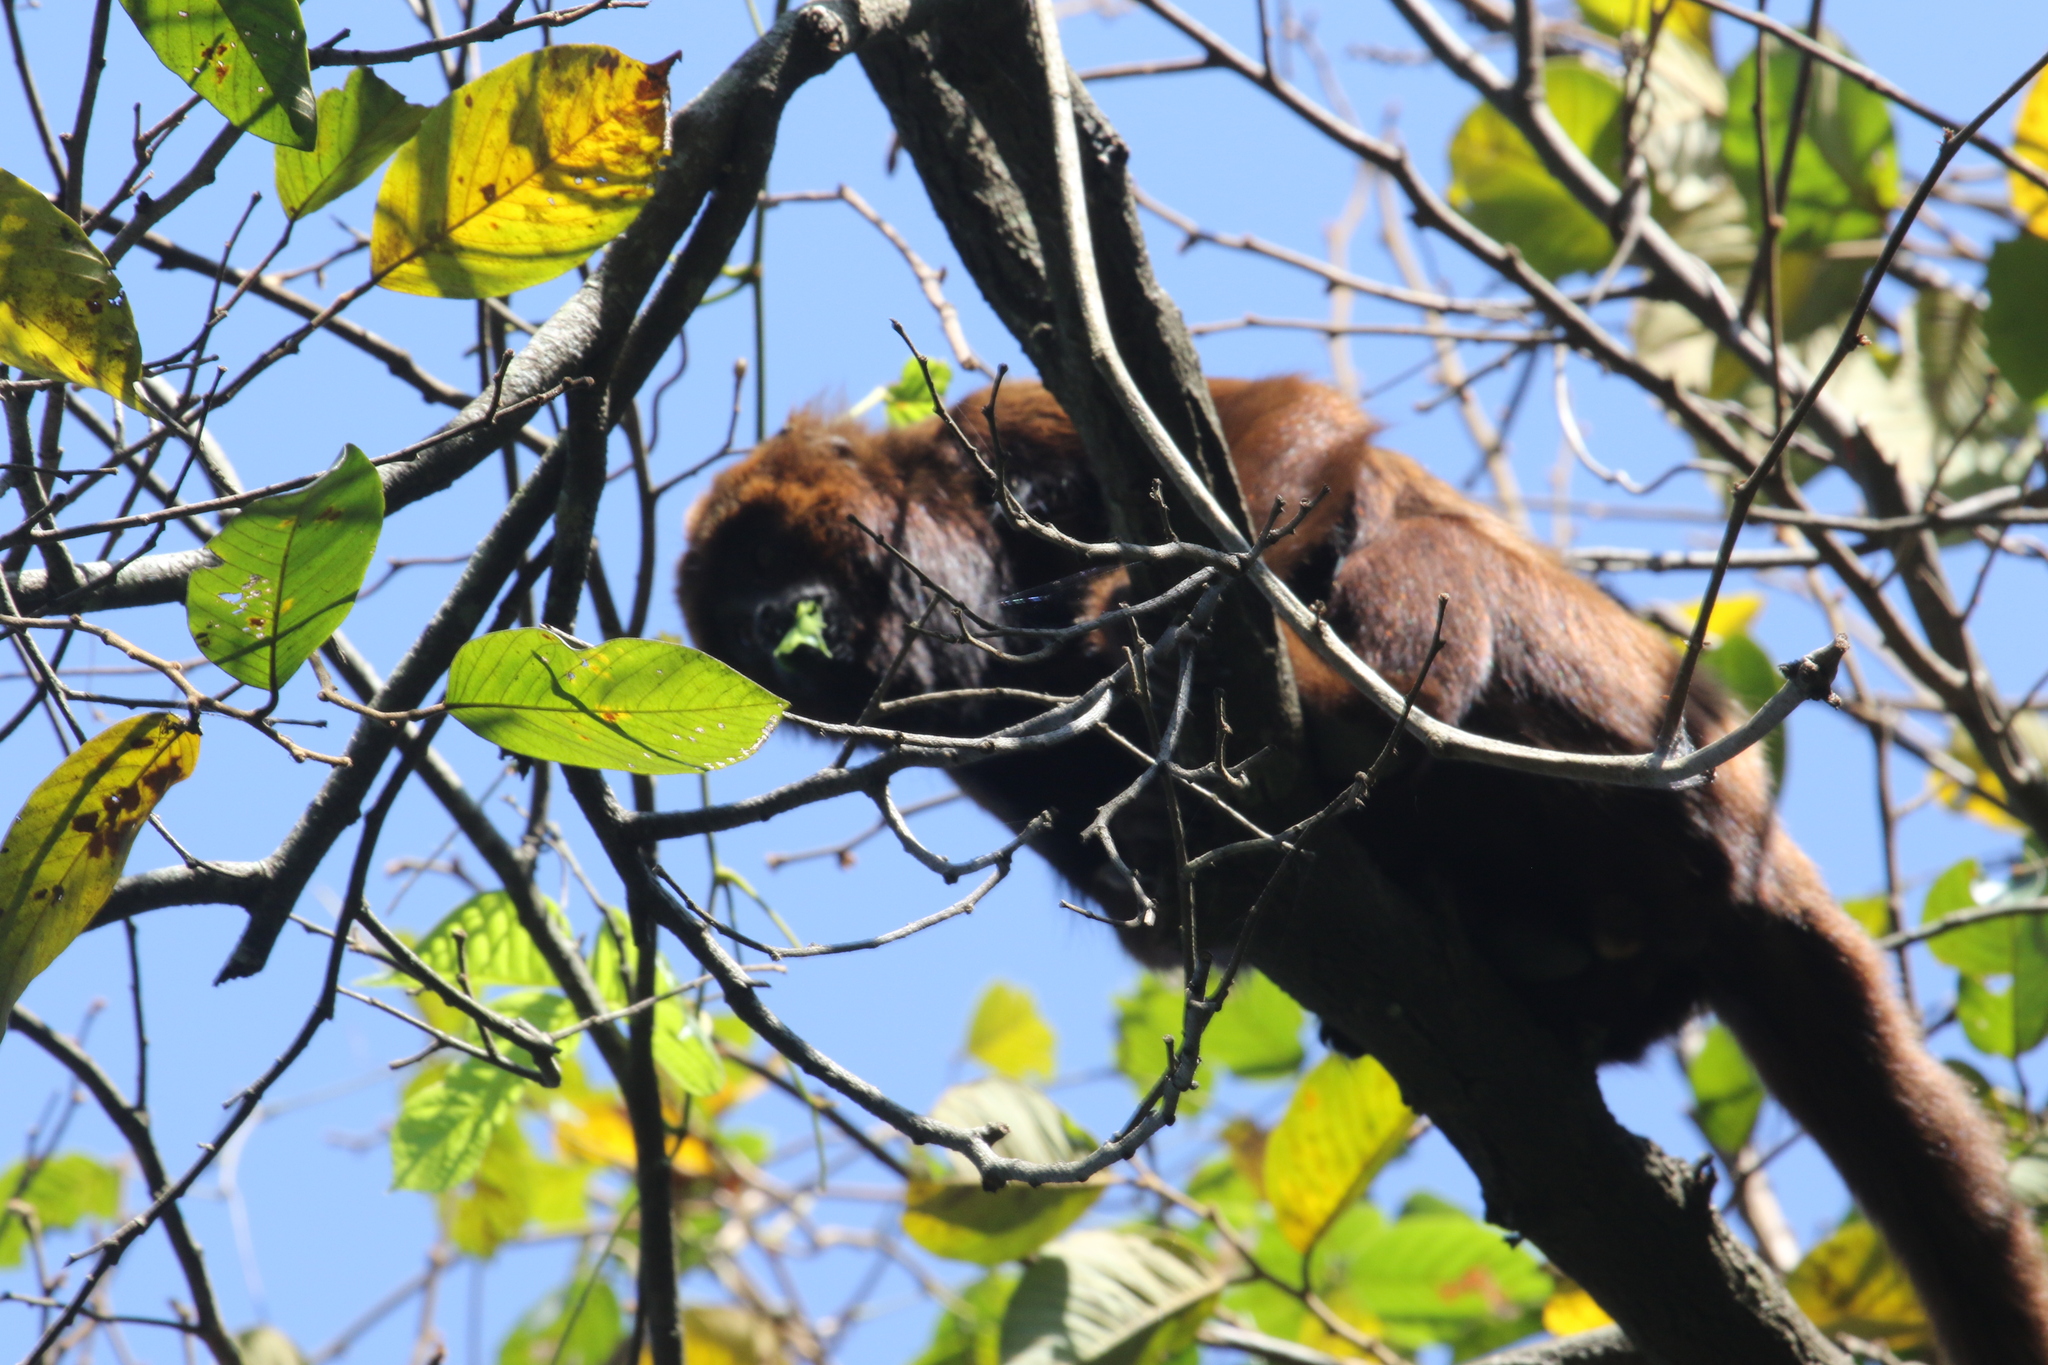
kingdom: Animalia
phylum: Chordata
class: Mammalia
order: Primates
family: Atelidae
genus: Alouatta
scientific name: Alouatta guariba
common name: Brown howler monkey
